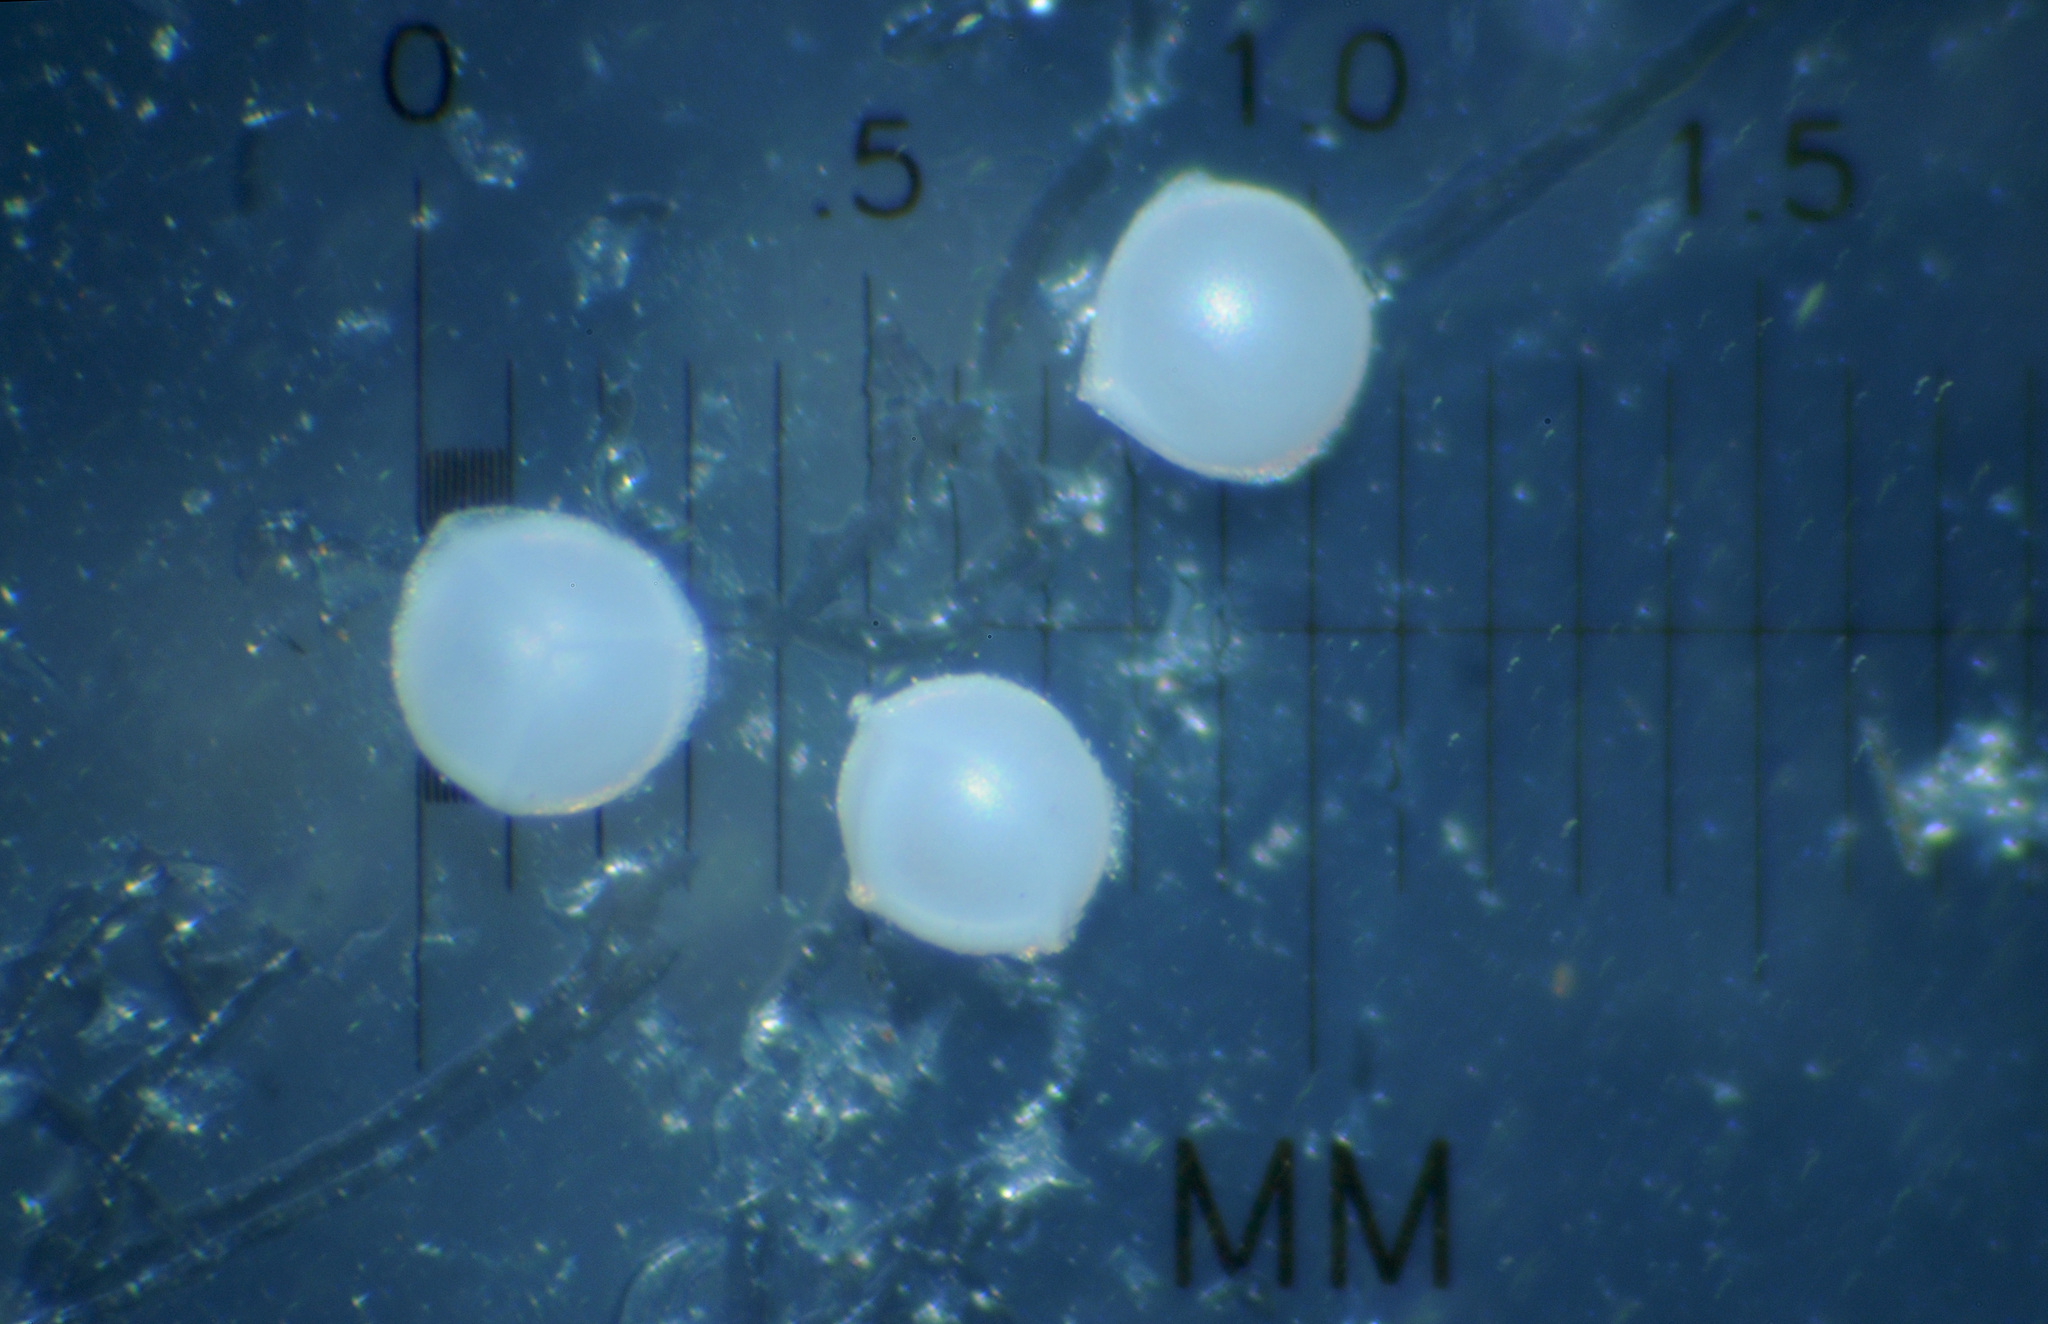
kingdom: Plantae
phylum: Tracheophyta
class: Lycopodiopsida
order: Isoetales
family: Isoetaceae
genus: Isoetes
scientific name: Isoetes orcuttii
